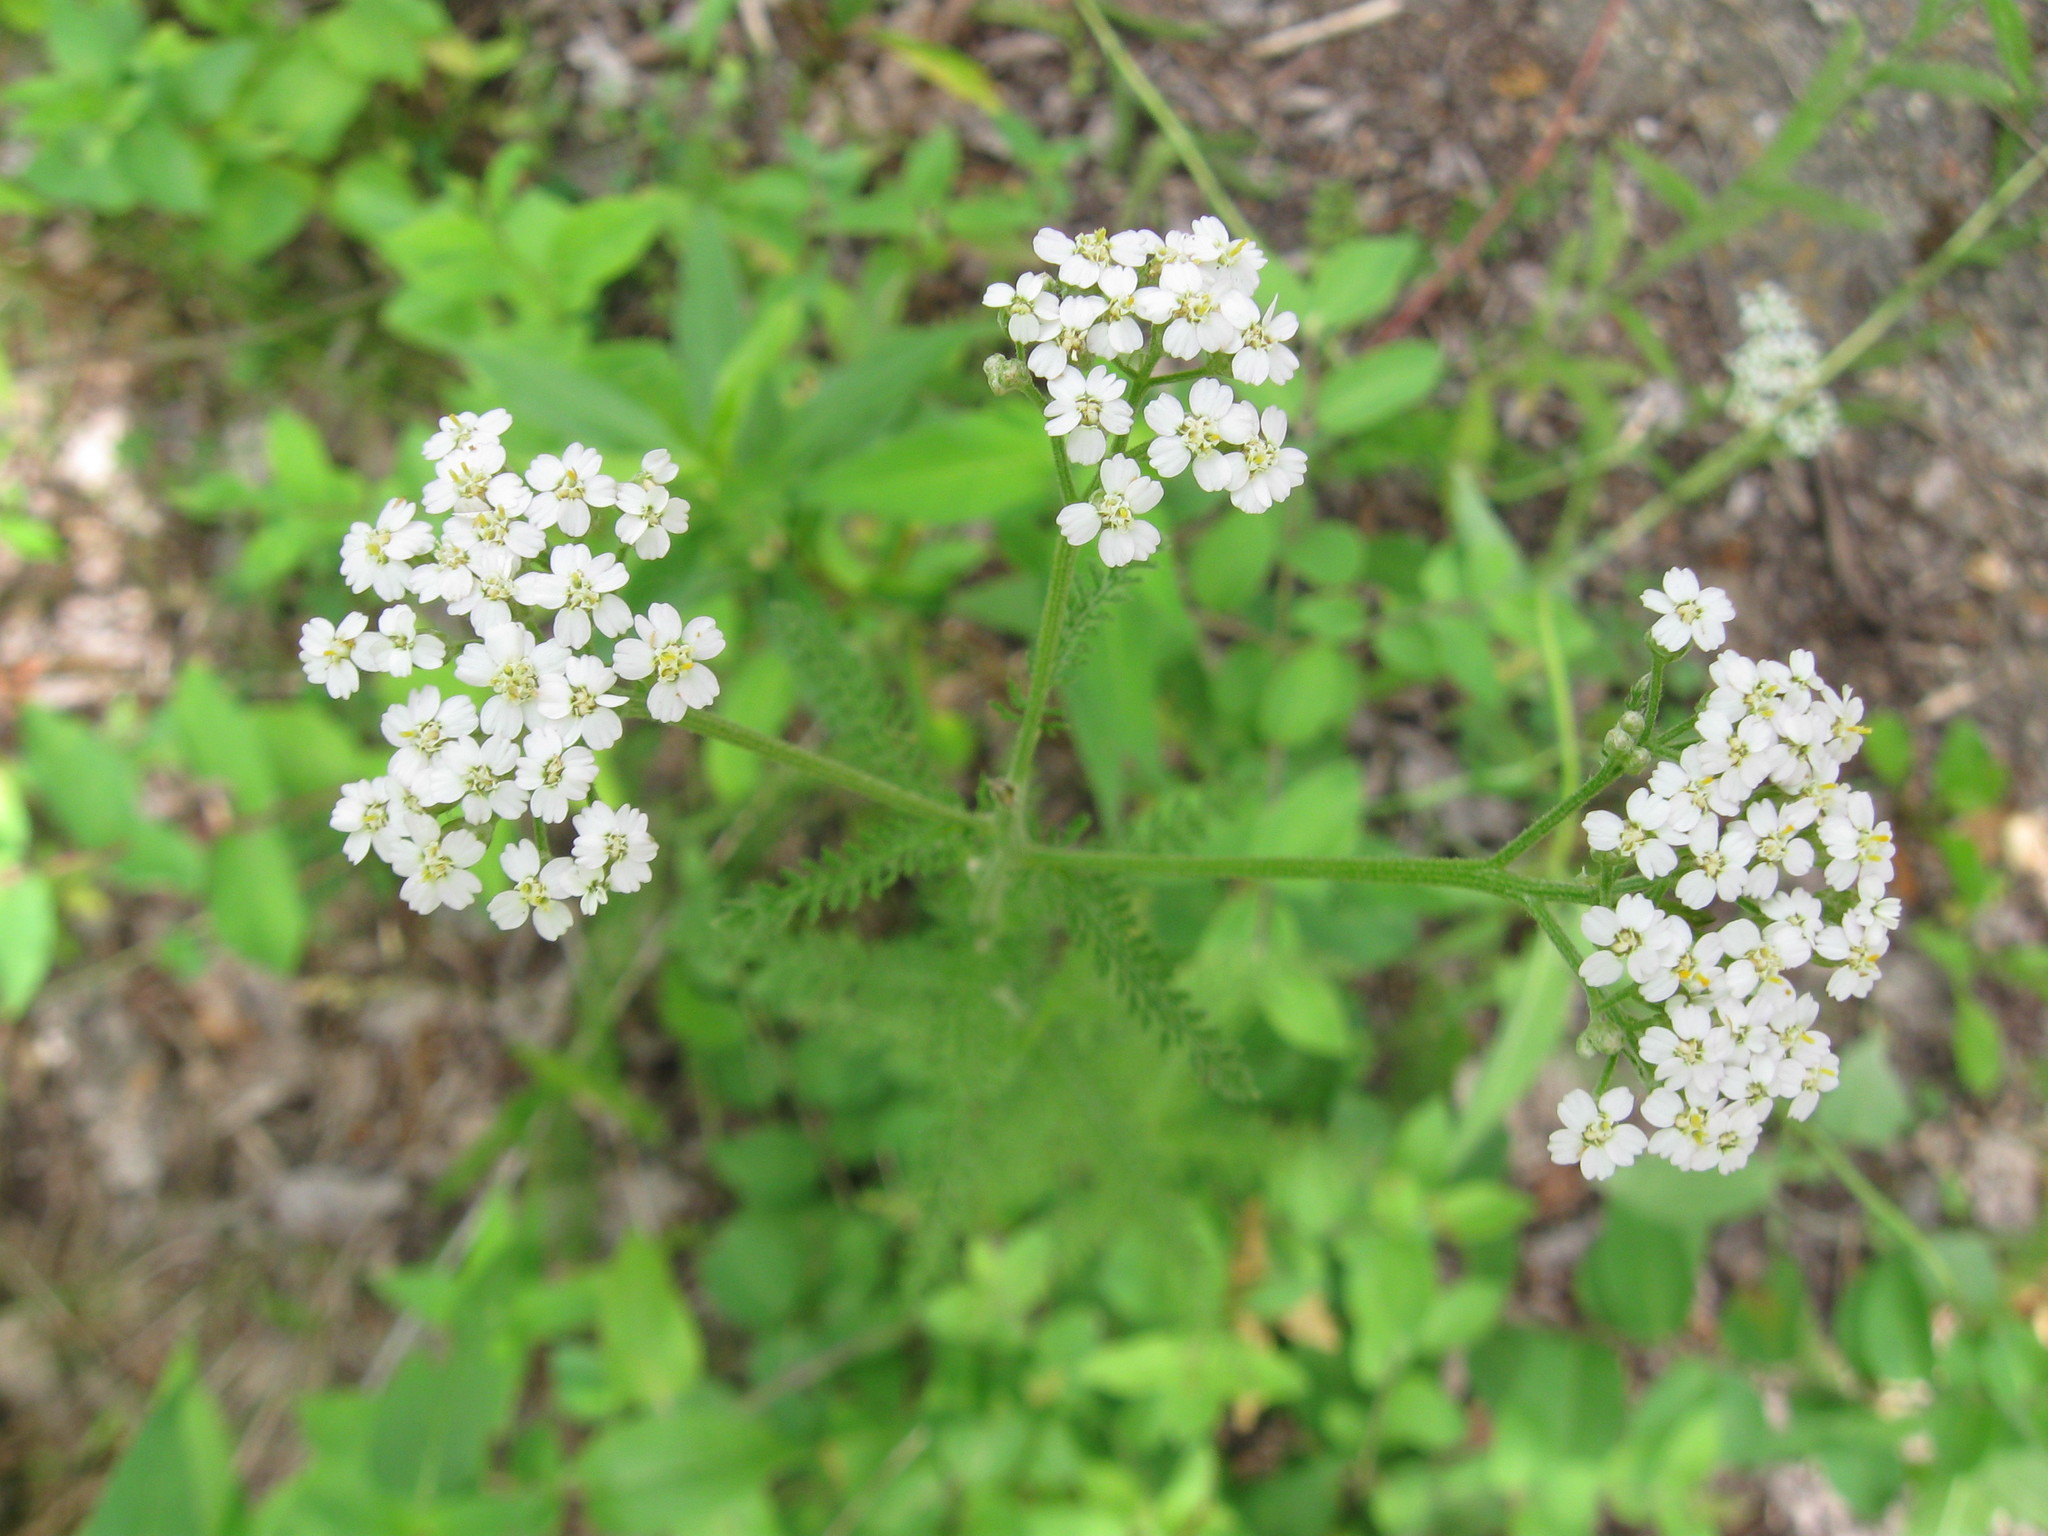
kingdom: Plantae
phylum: Tracheophyta
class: Magnoliopsida
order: Asterales
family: Asteraceae
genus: Achillea
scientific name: Achillea millefolium
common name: Yarrow
